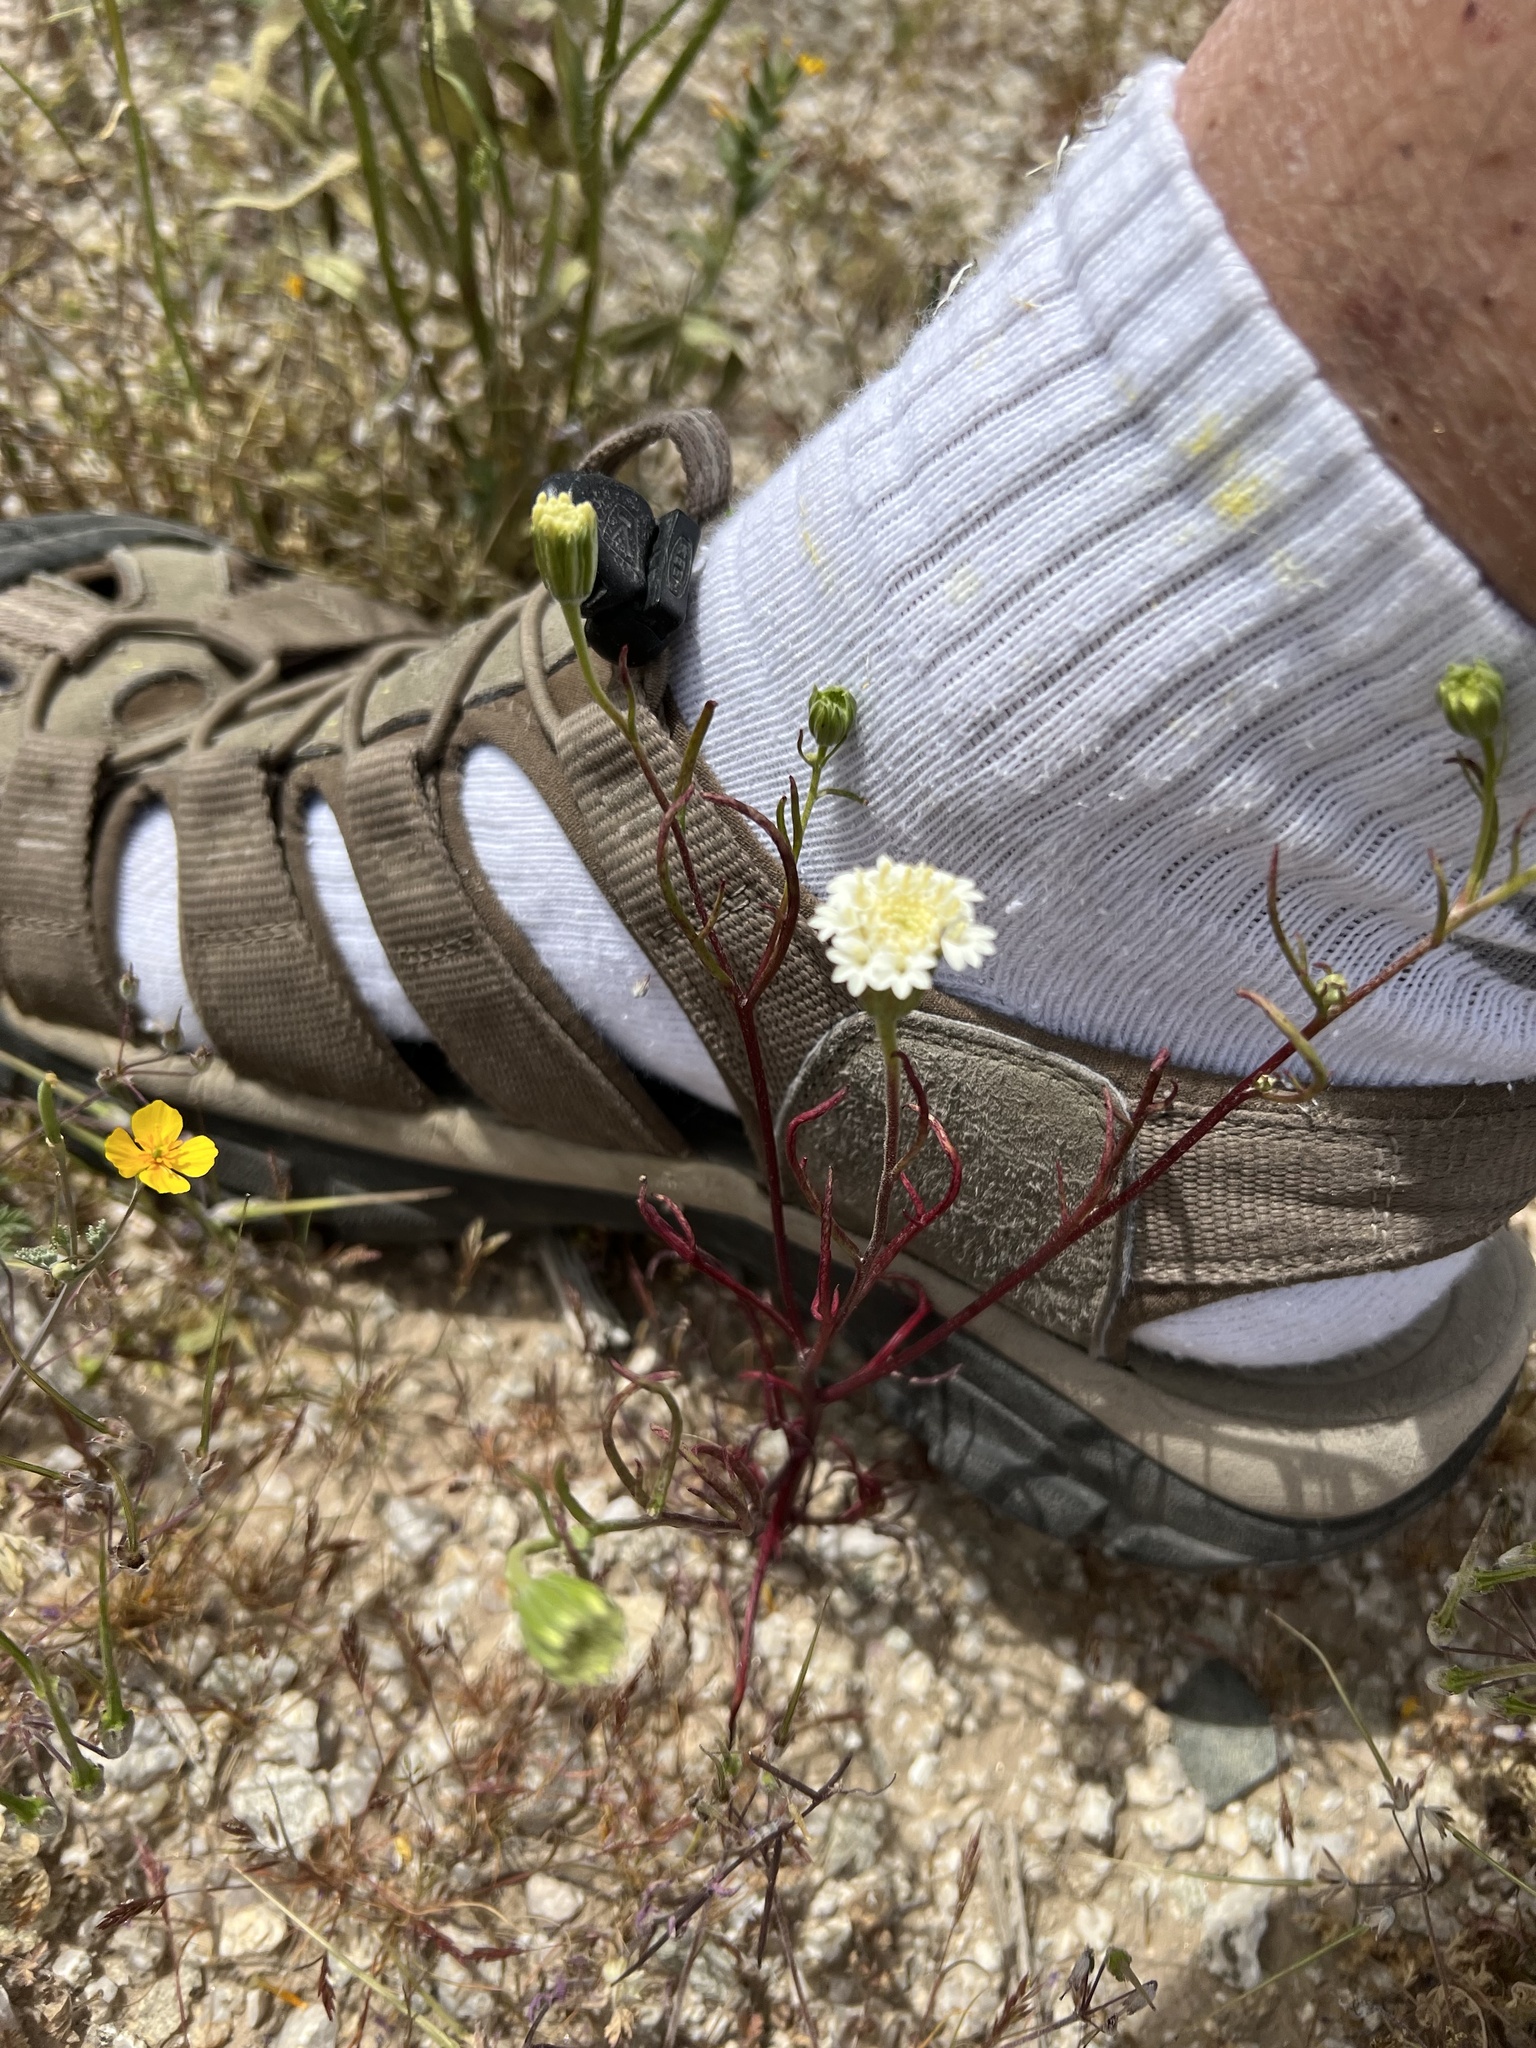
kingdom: Plantae
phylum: Tracheophyta
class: Magnoliopsida
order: Asterales
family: Asteraceae
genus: Chaenactis
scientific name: Chaenactis fremontii
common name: Fremont pincushion
